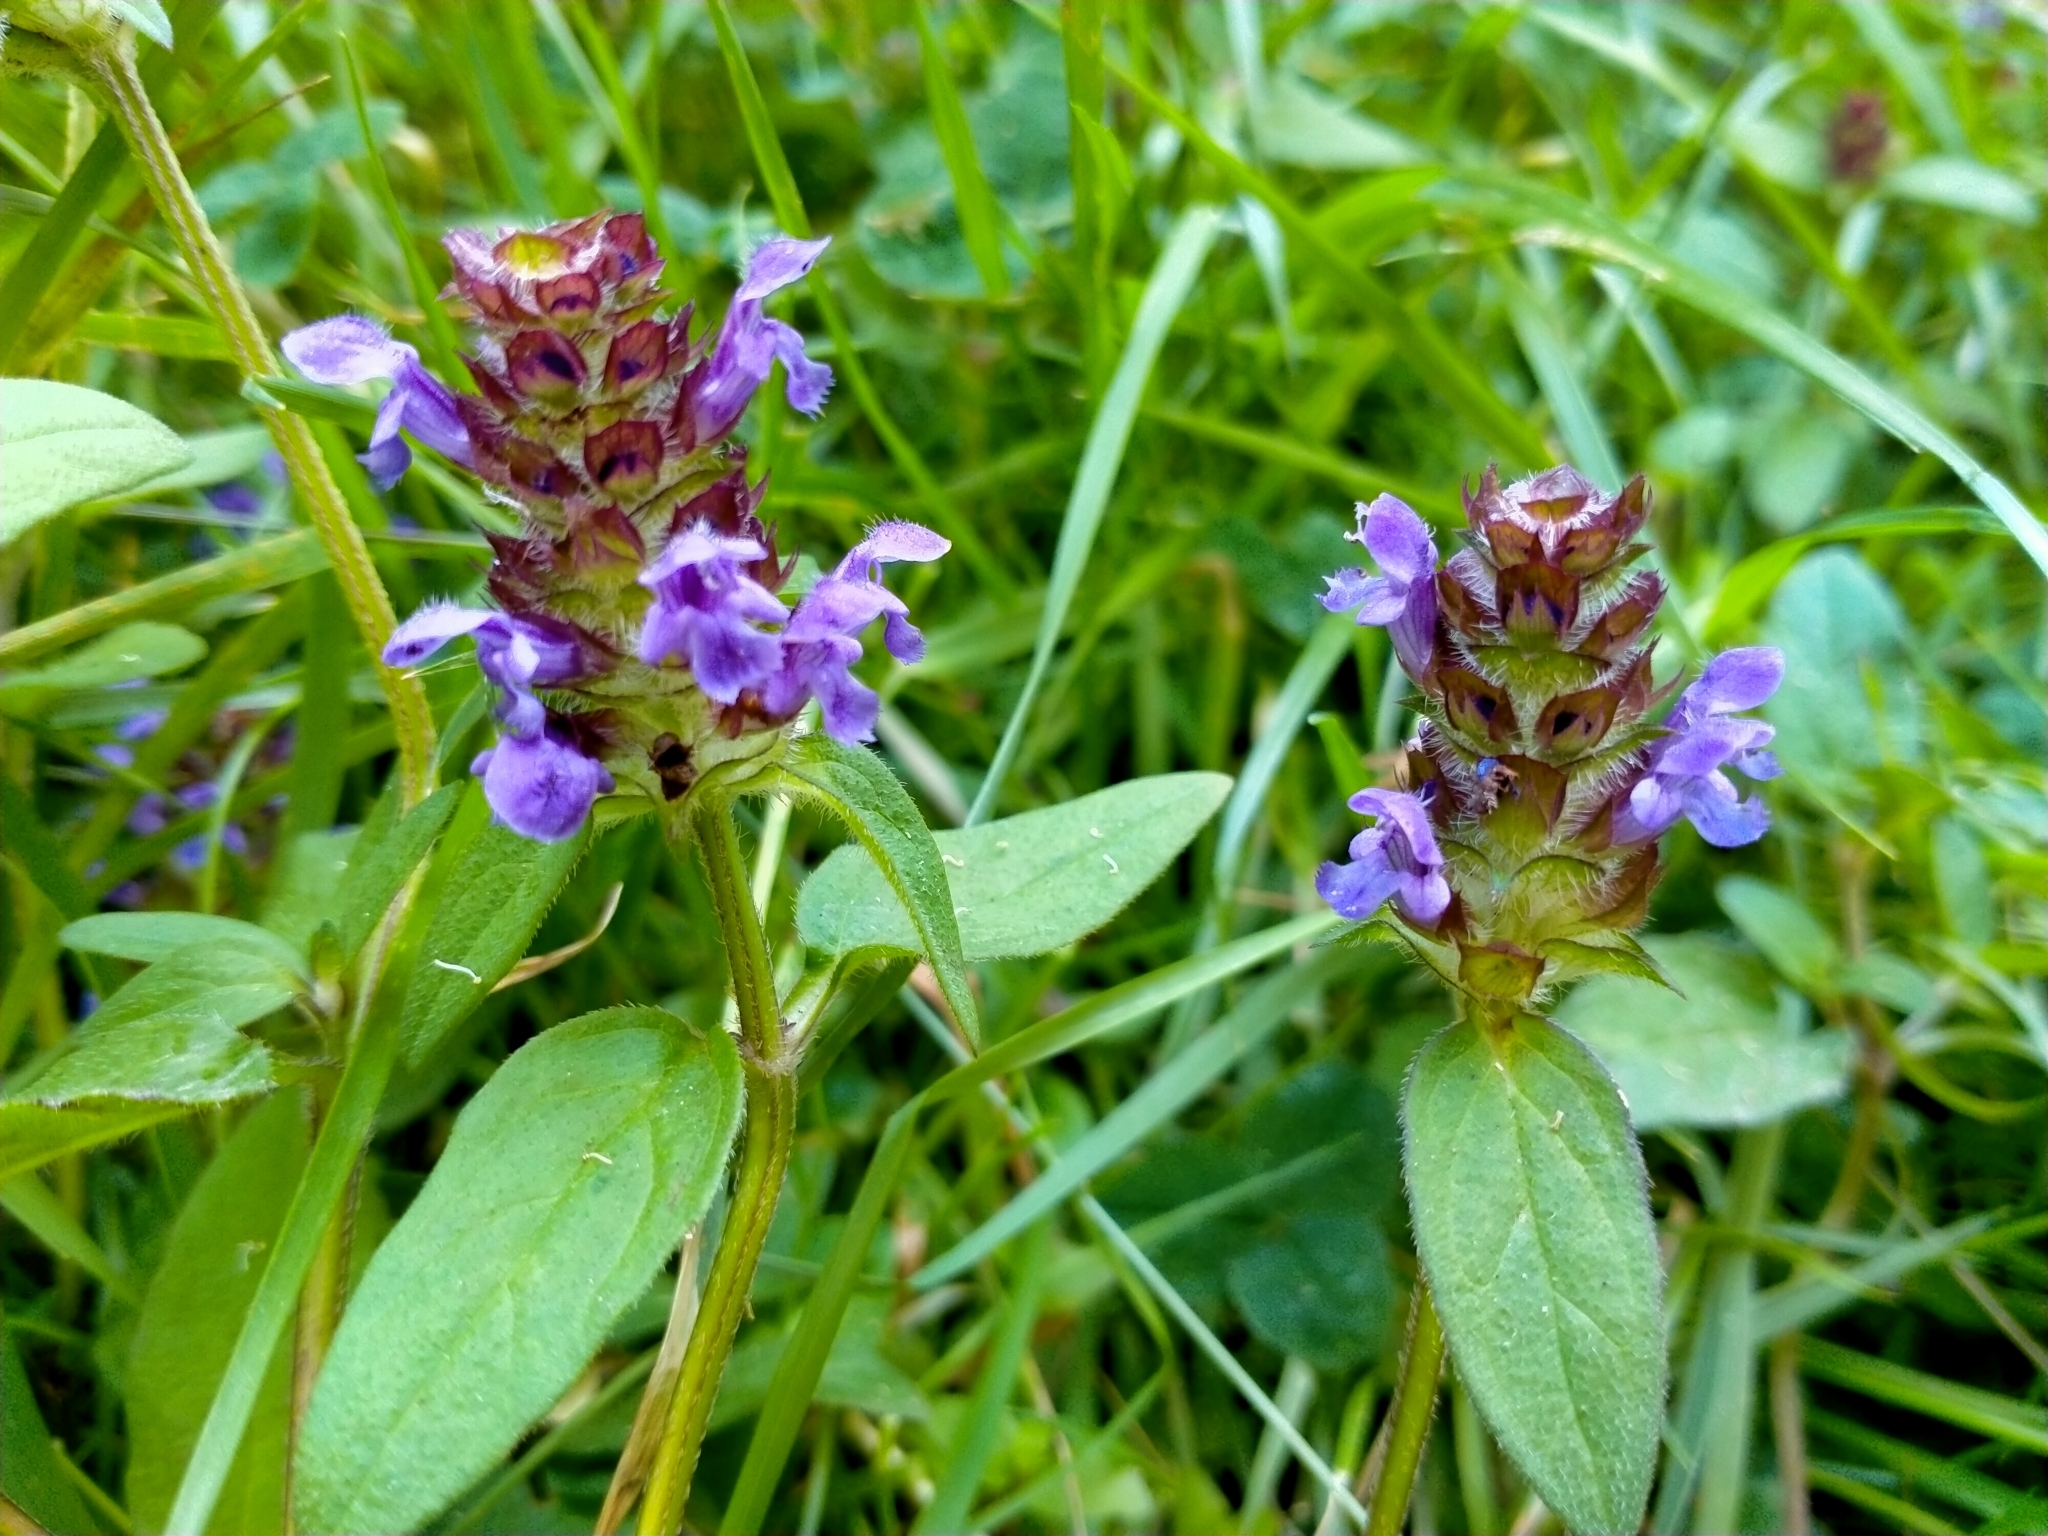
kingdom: Plantae
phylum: Tracheophyta
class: Magnoliopsida
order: Lamiales
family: Lamiaceae
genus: Prunella
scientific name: Prunella vulgaris
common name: Heal-all
